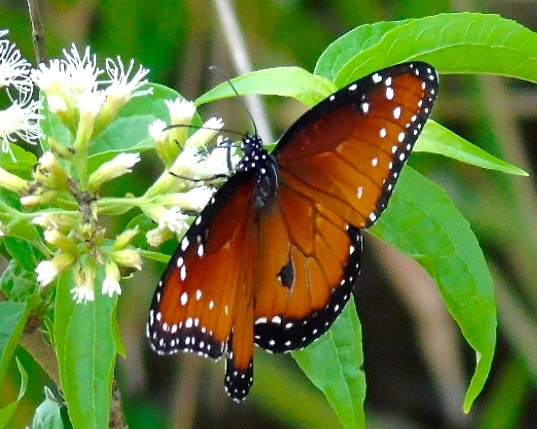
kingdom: Animalia
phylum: Arthropoda
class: Insecta
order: Lepidoptera
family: Nymphalidae
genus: Danaus
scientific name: Danaus gilippus
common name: Queen
